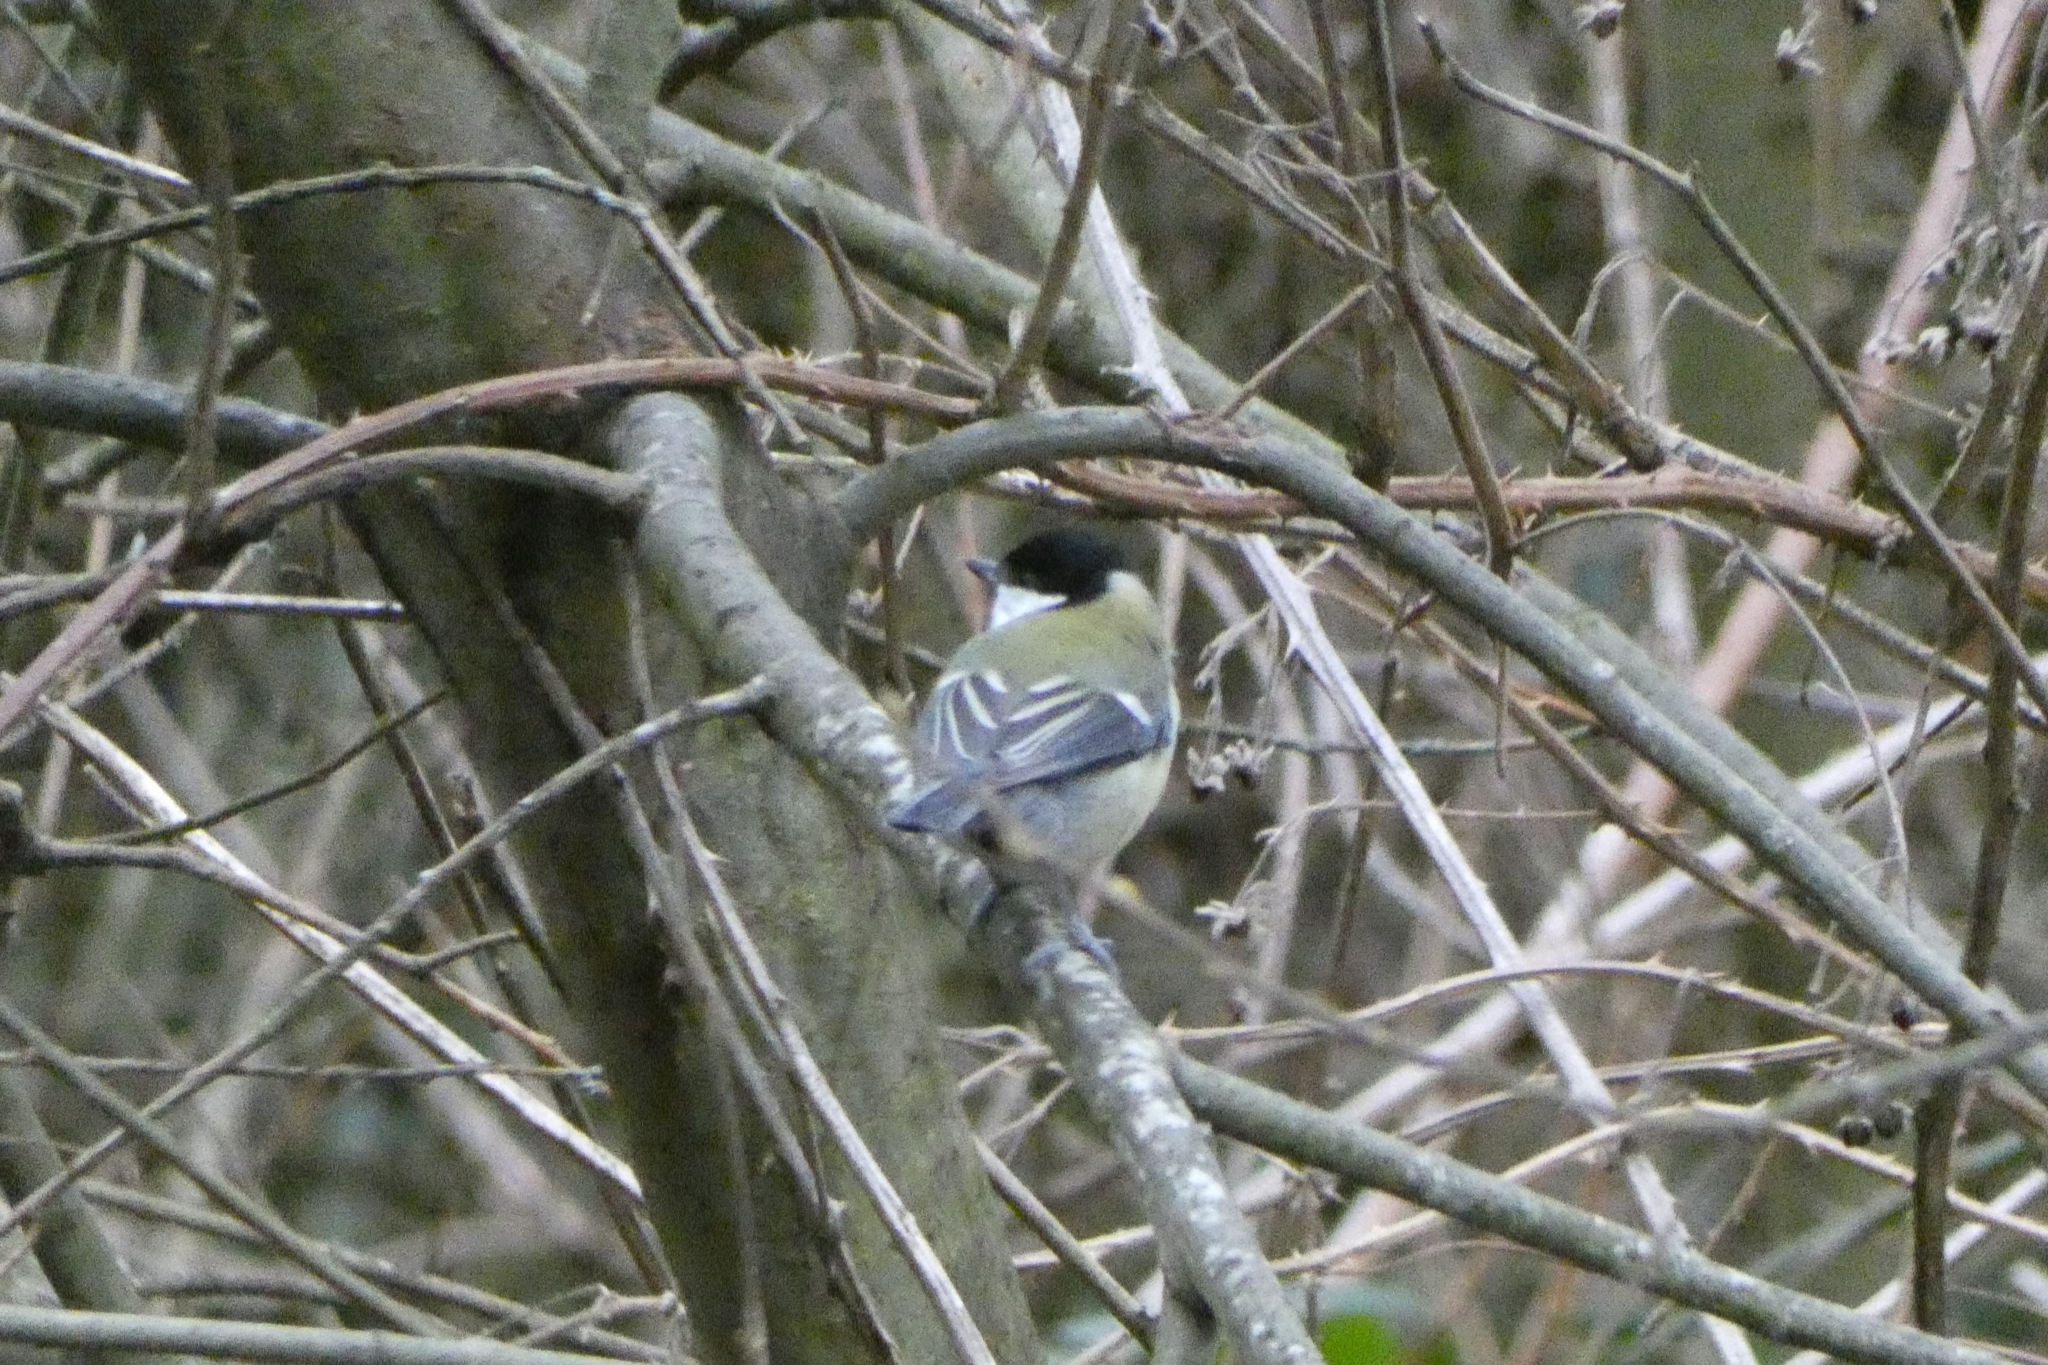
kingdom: Animalia
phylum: Chordata
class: Aves
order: Passeriformes
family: Paridae
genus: Parus
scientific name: Parus major
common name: Great tit
